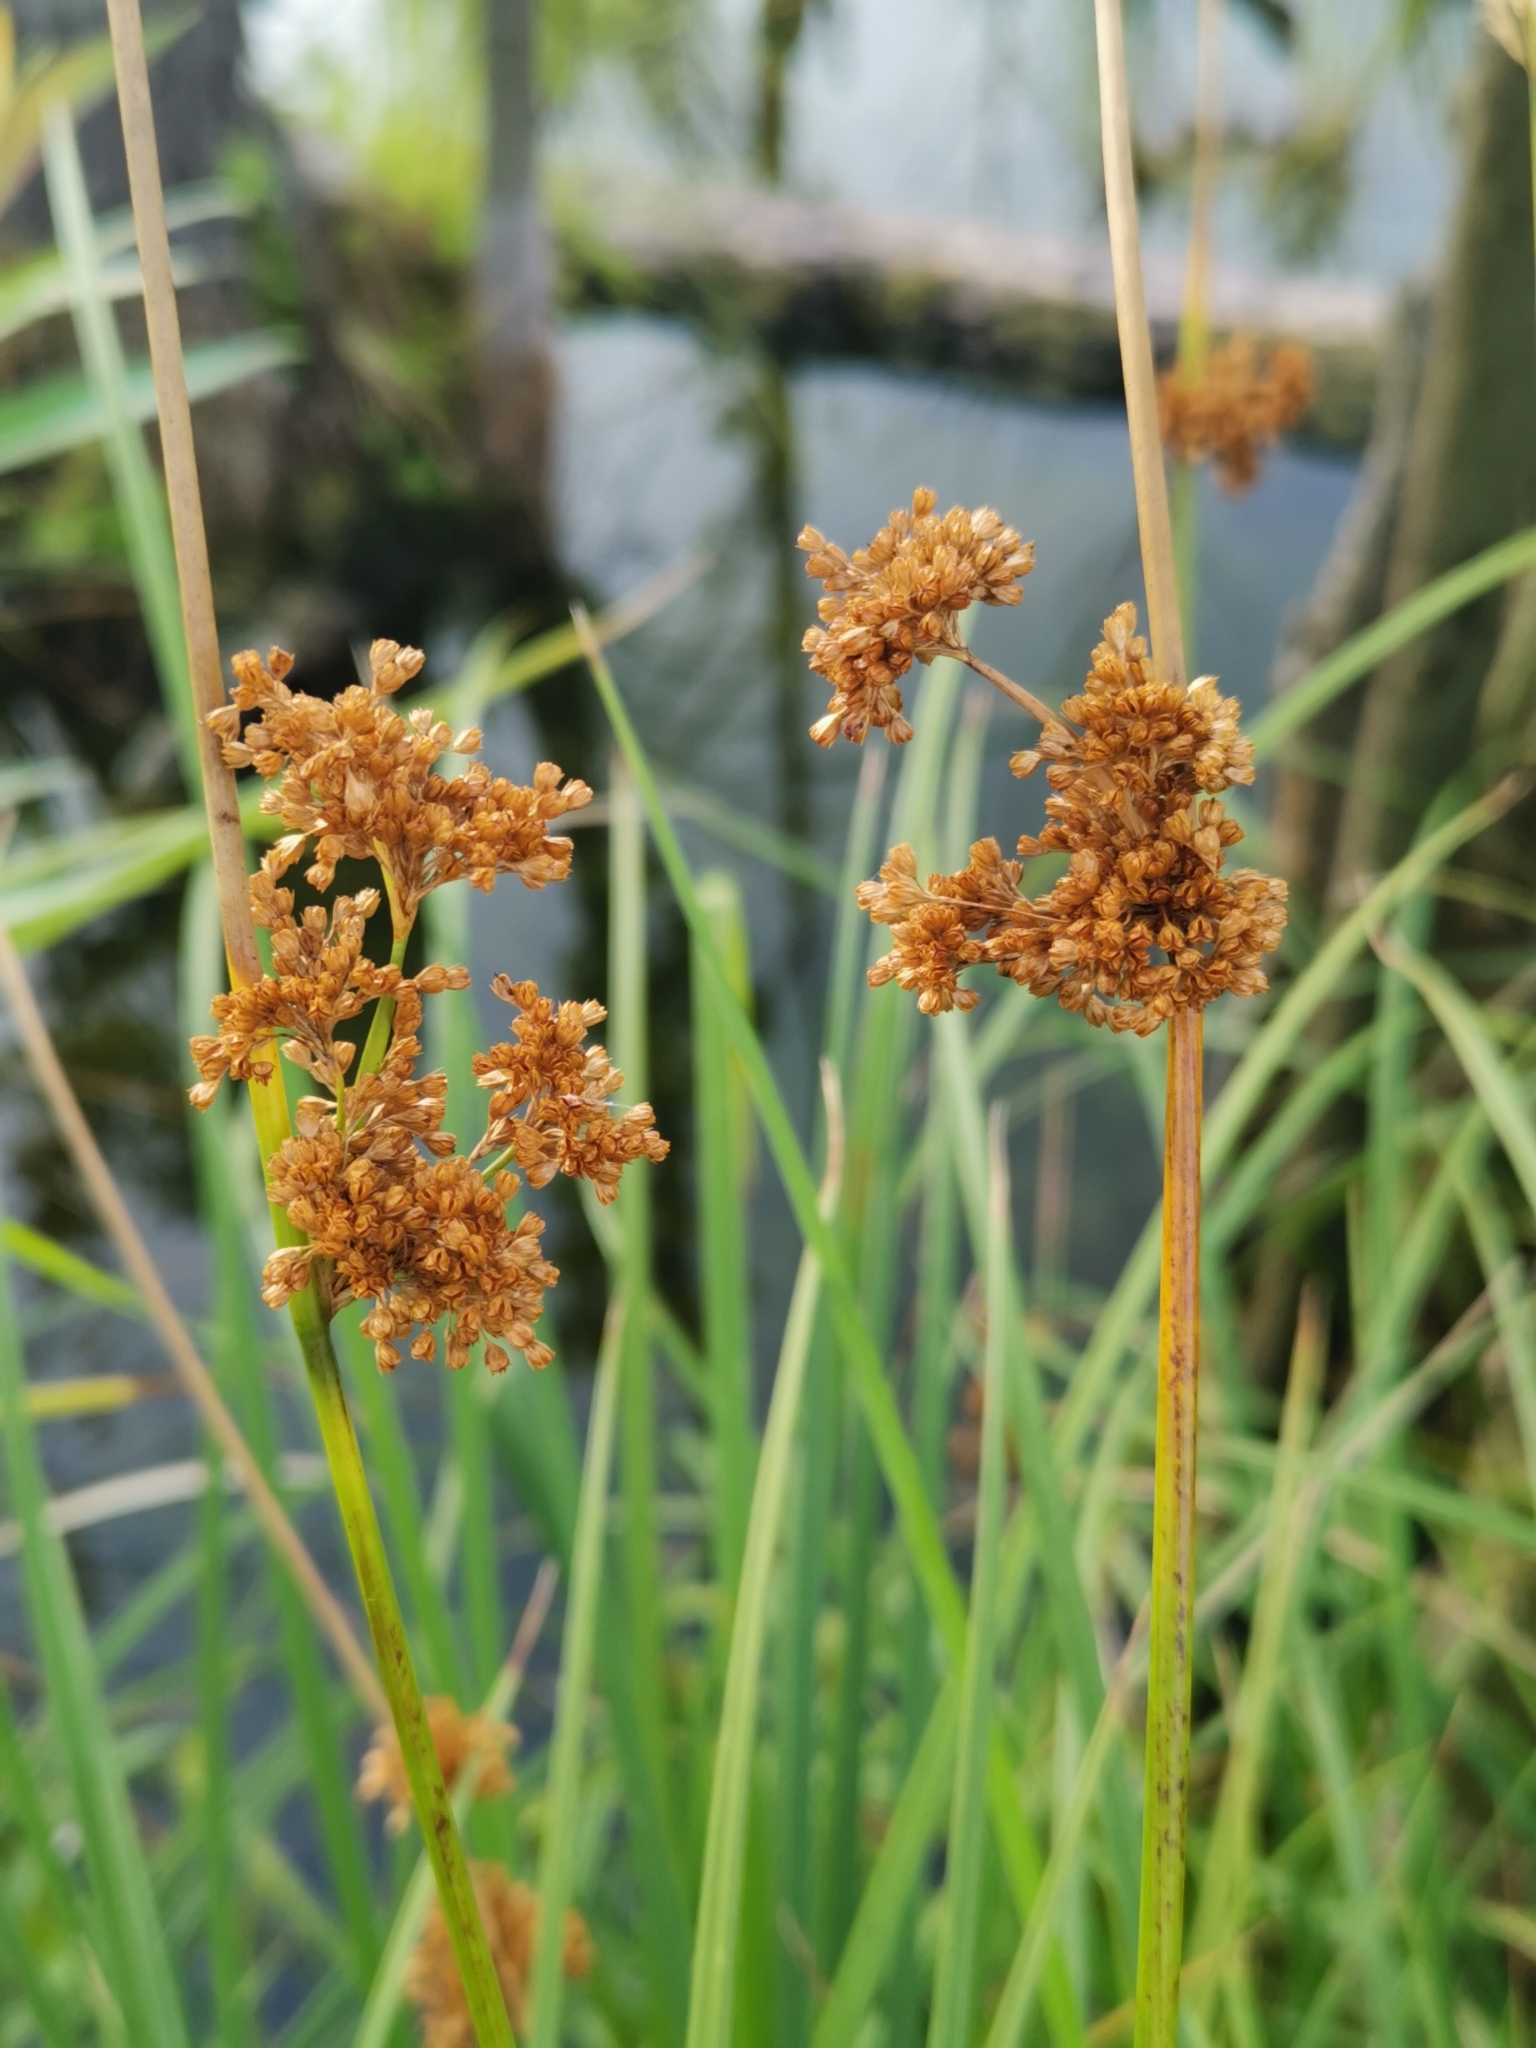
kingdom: Plantae
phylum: Tracheophyta
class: Liliopsida
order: Poales
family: Juncaceae
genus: Juncus
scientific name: Juncus effusus
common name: Soft rush
